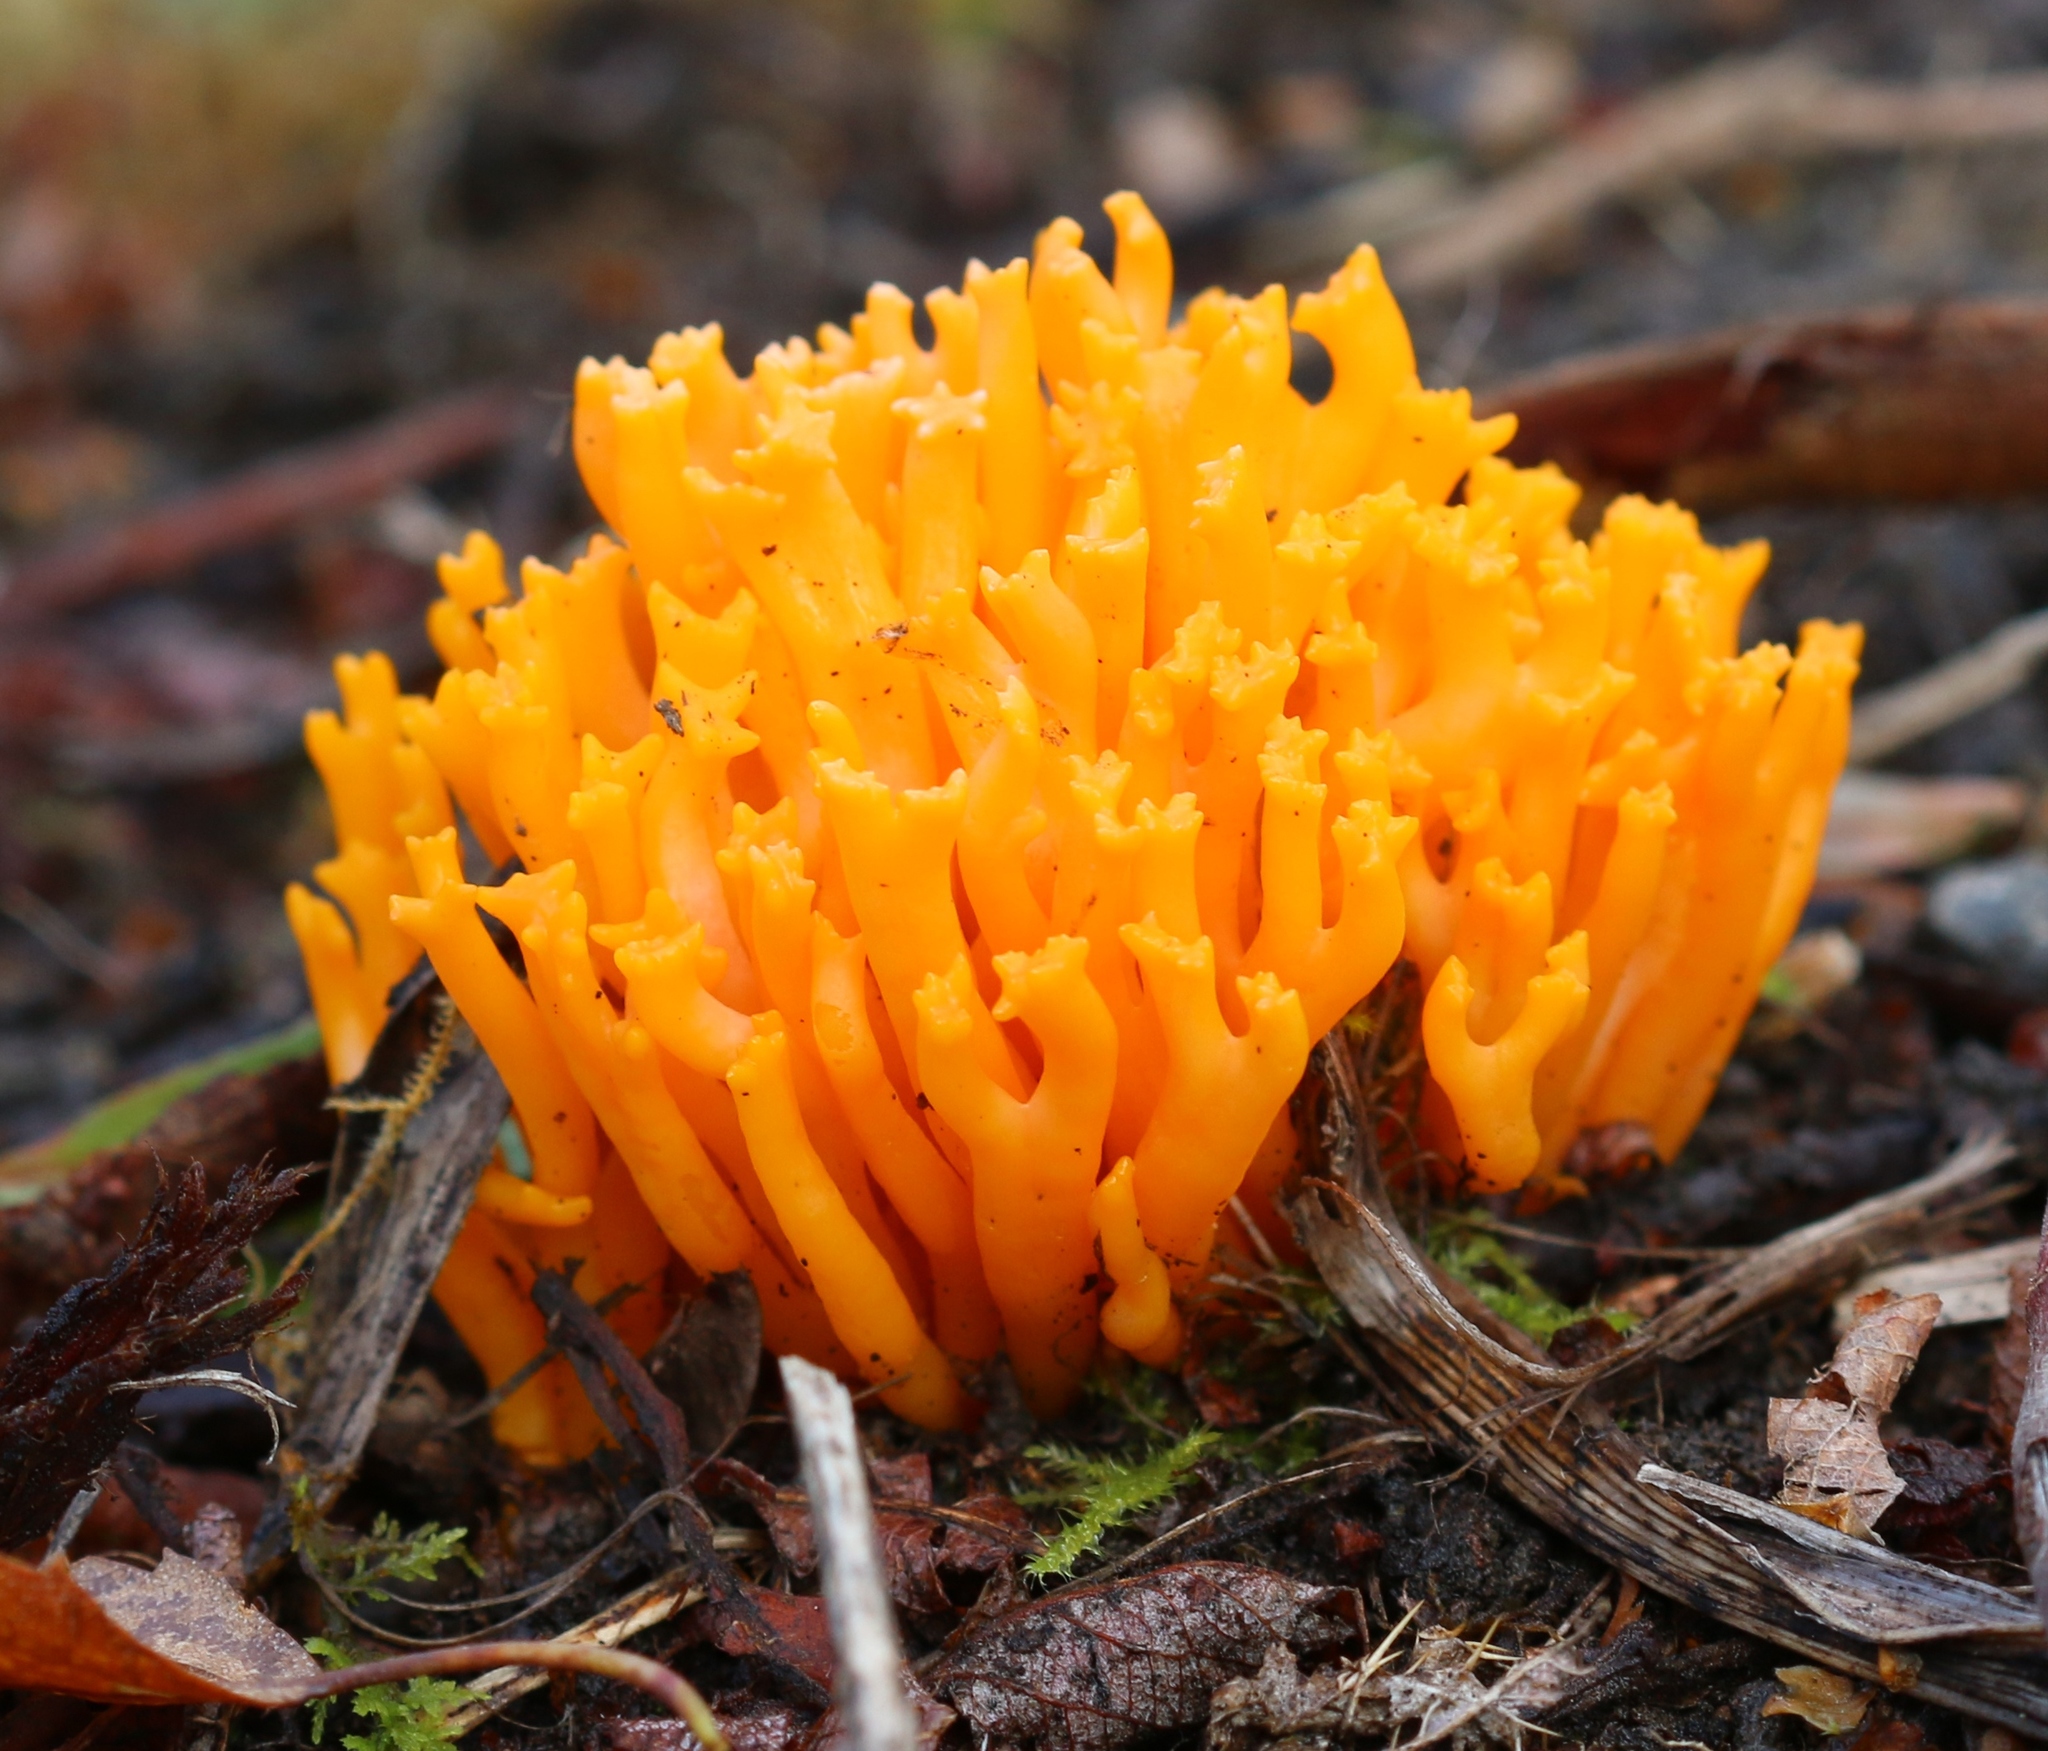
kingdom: Fungi
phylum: Basidiomycota
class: Dacrymycetes
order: Dacrymycetales
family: Dacrymycetaceae
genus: Calocera
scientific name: Calocera viscosa
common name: Yellow stagshorn
